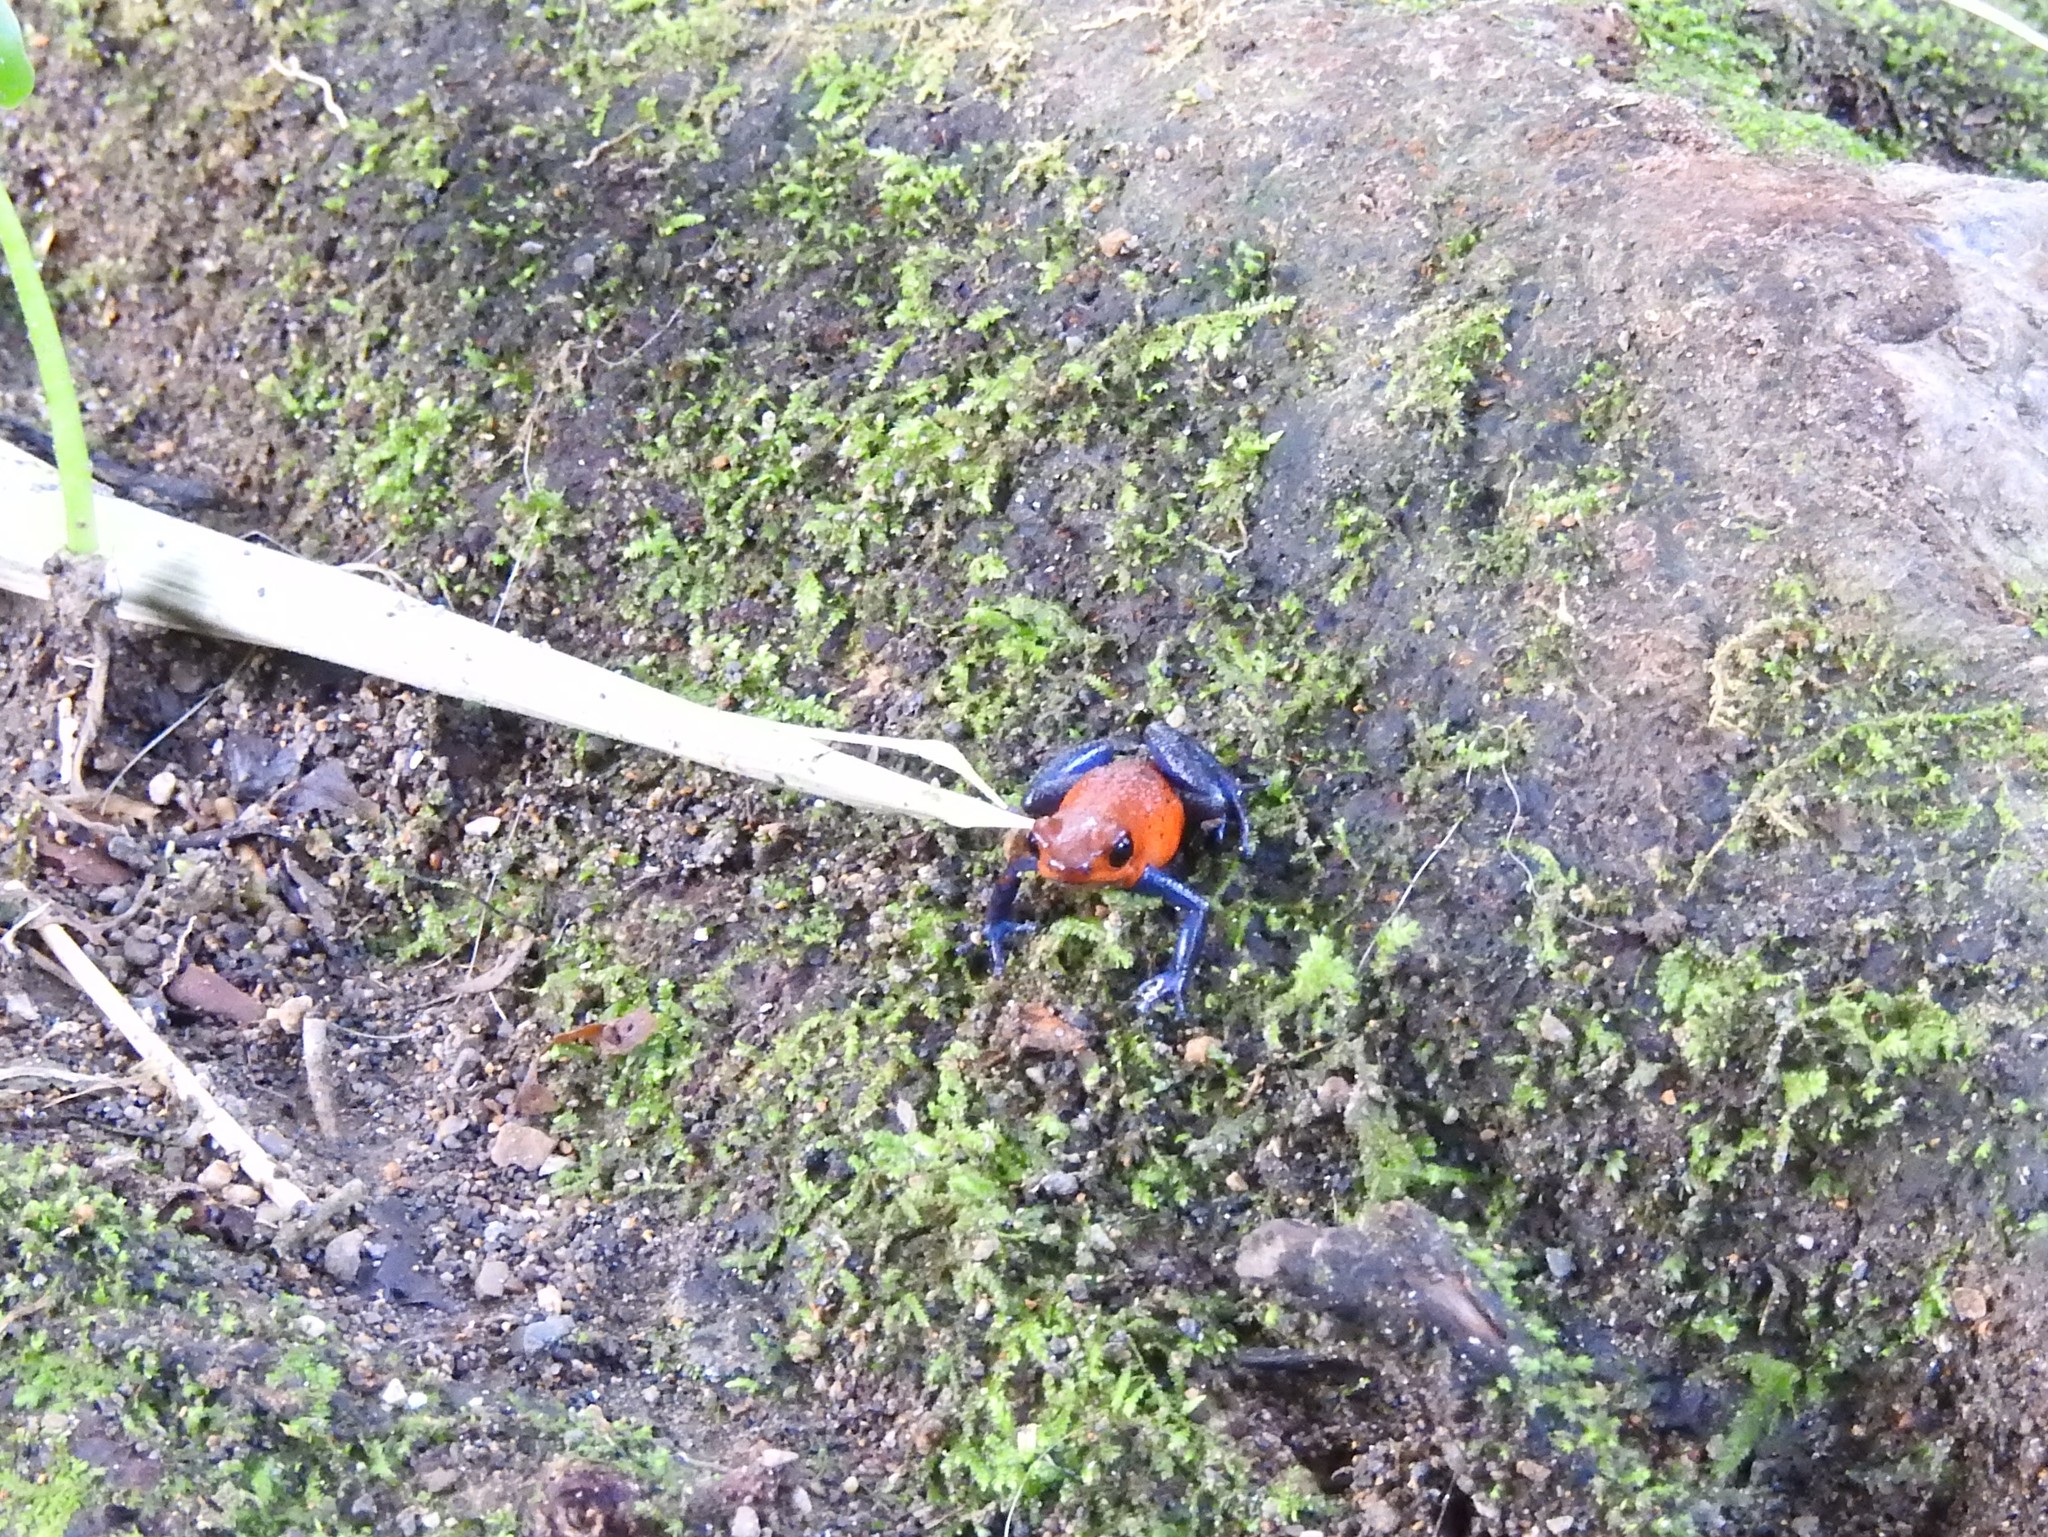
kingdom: Animalia
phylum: Chordata
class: Amphibia
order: Anura
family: Dendrobatidae
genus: Oophaga
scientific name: Oophaga pumilio
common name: Flaming poison frog
